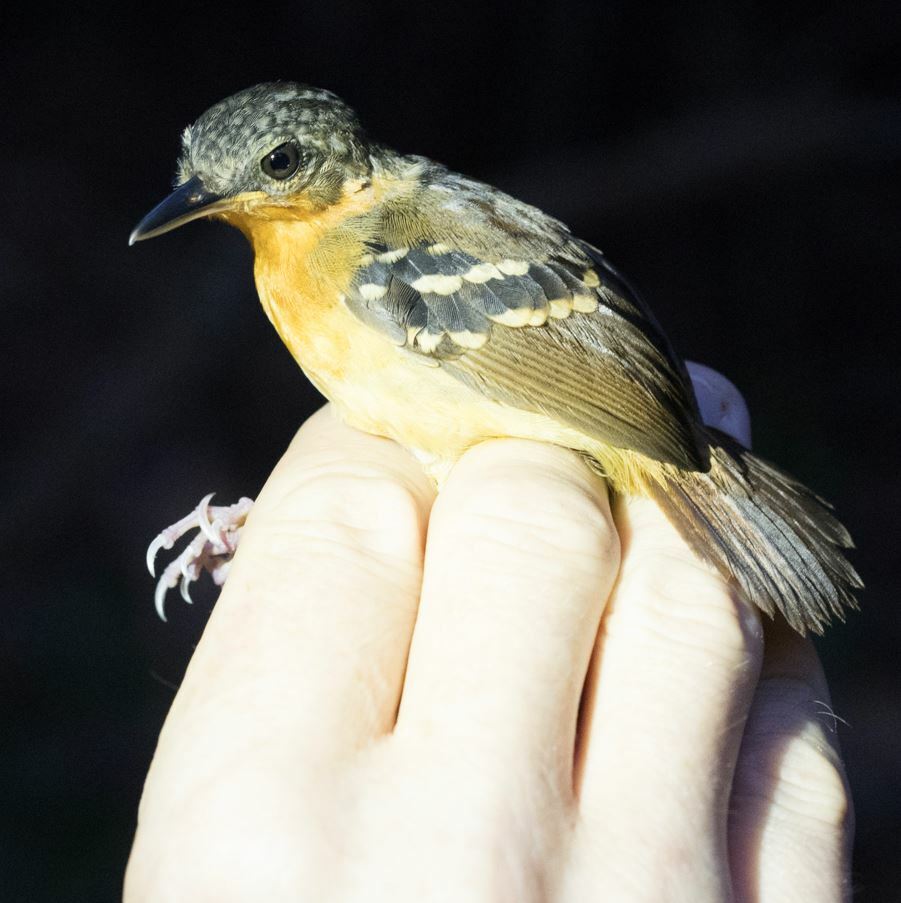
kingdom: Animalia
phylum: Chordata
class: Aves
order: Passeriformes
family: Thamnophilidae
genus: Myrmeciza
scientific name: Myrmeciza hemimelaena
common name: Southern chestnut-tailed antbird
